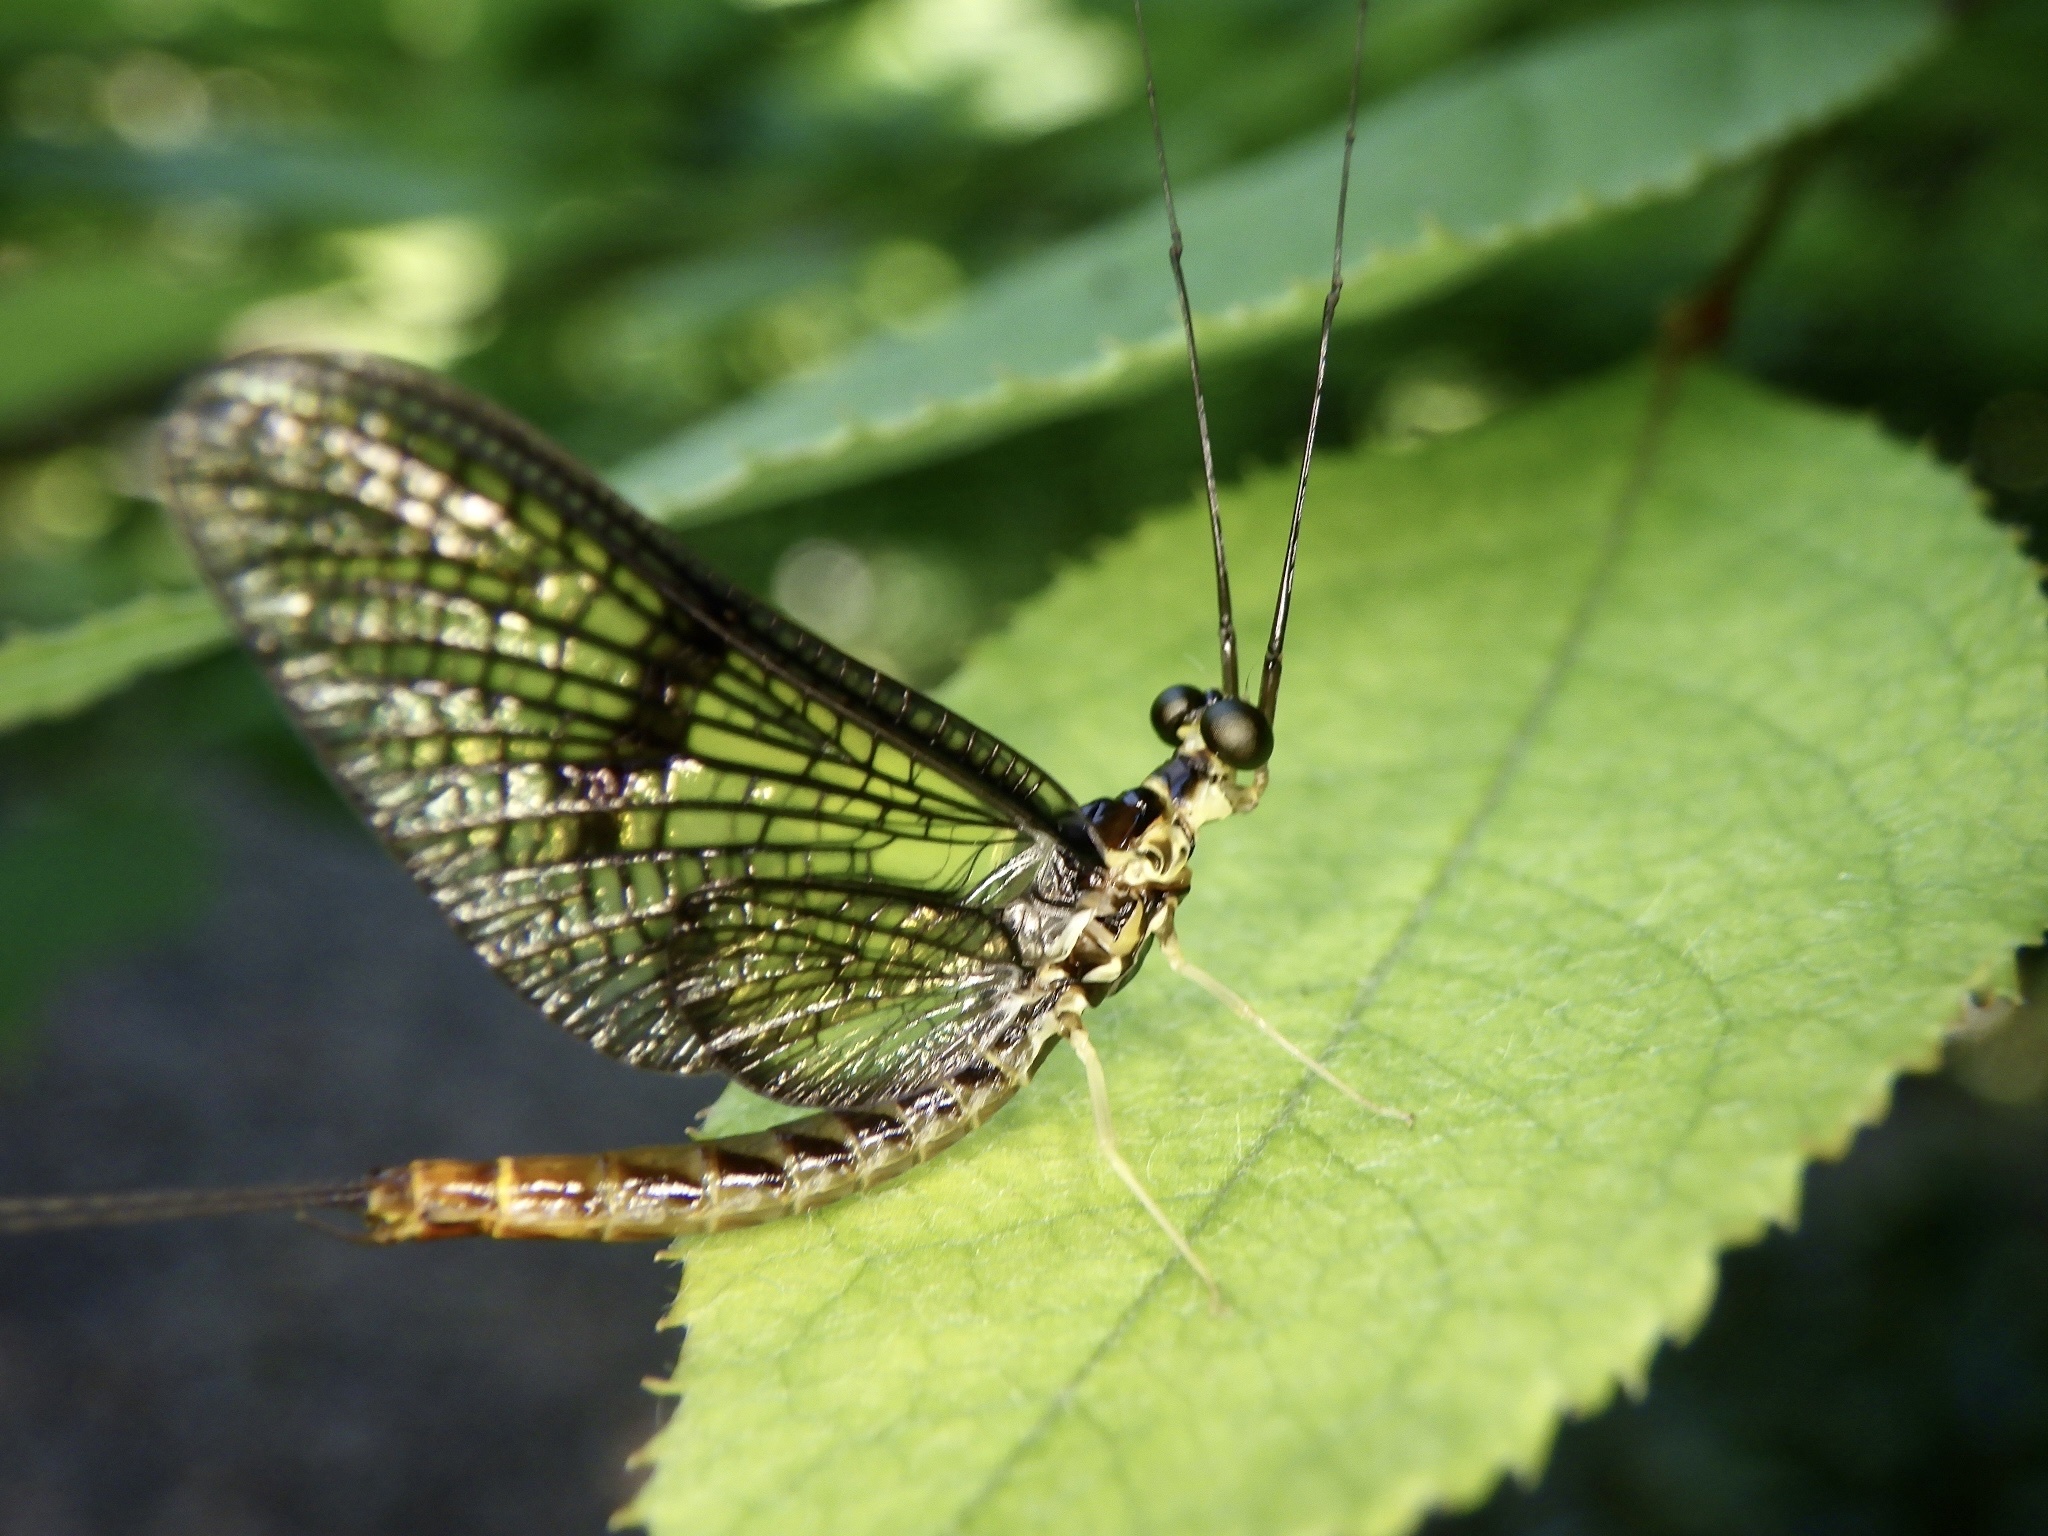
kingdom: Animalia
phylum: Arthropoda
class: Insecta
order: Ephemeroptera
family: Ephemeridae
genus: Ephemera
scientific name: Ephemera strigata
